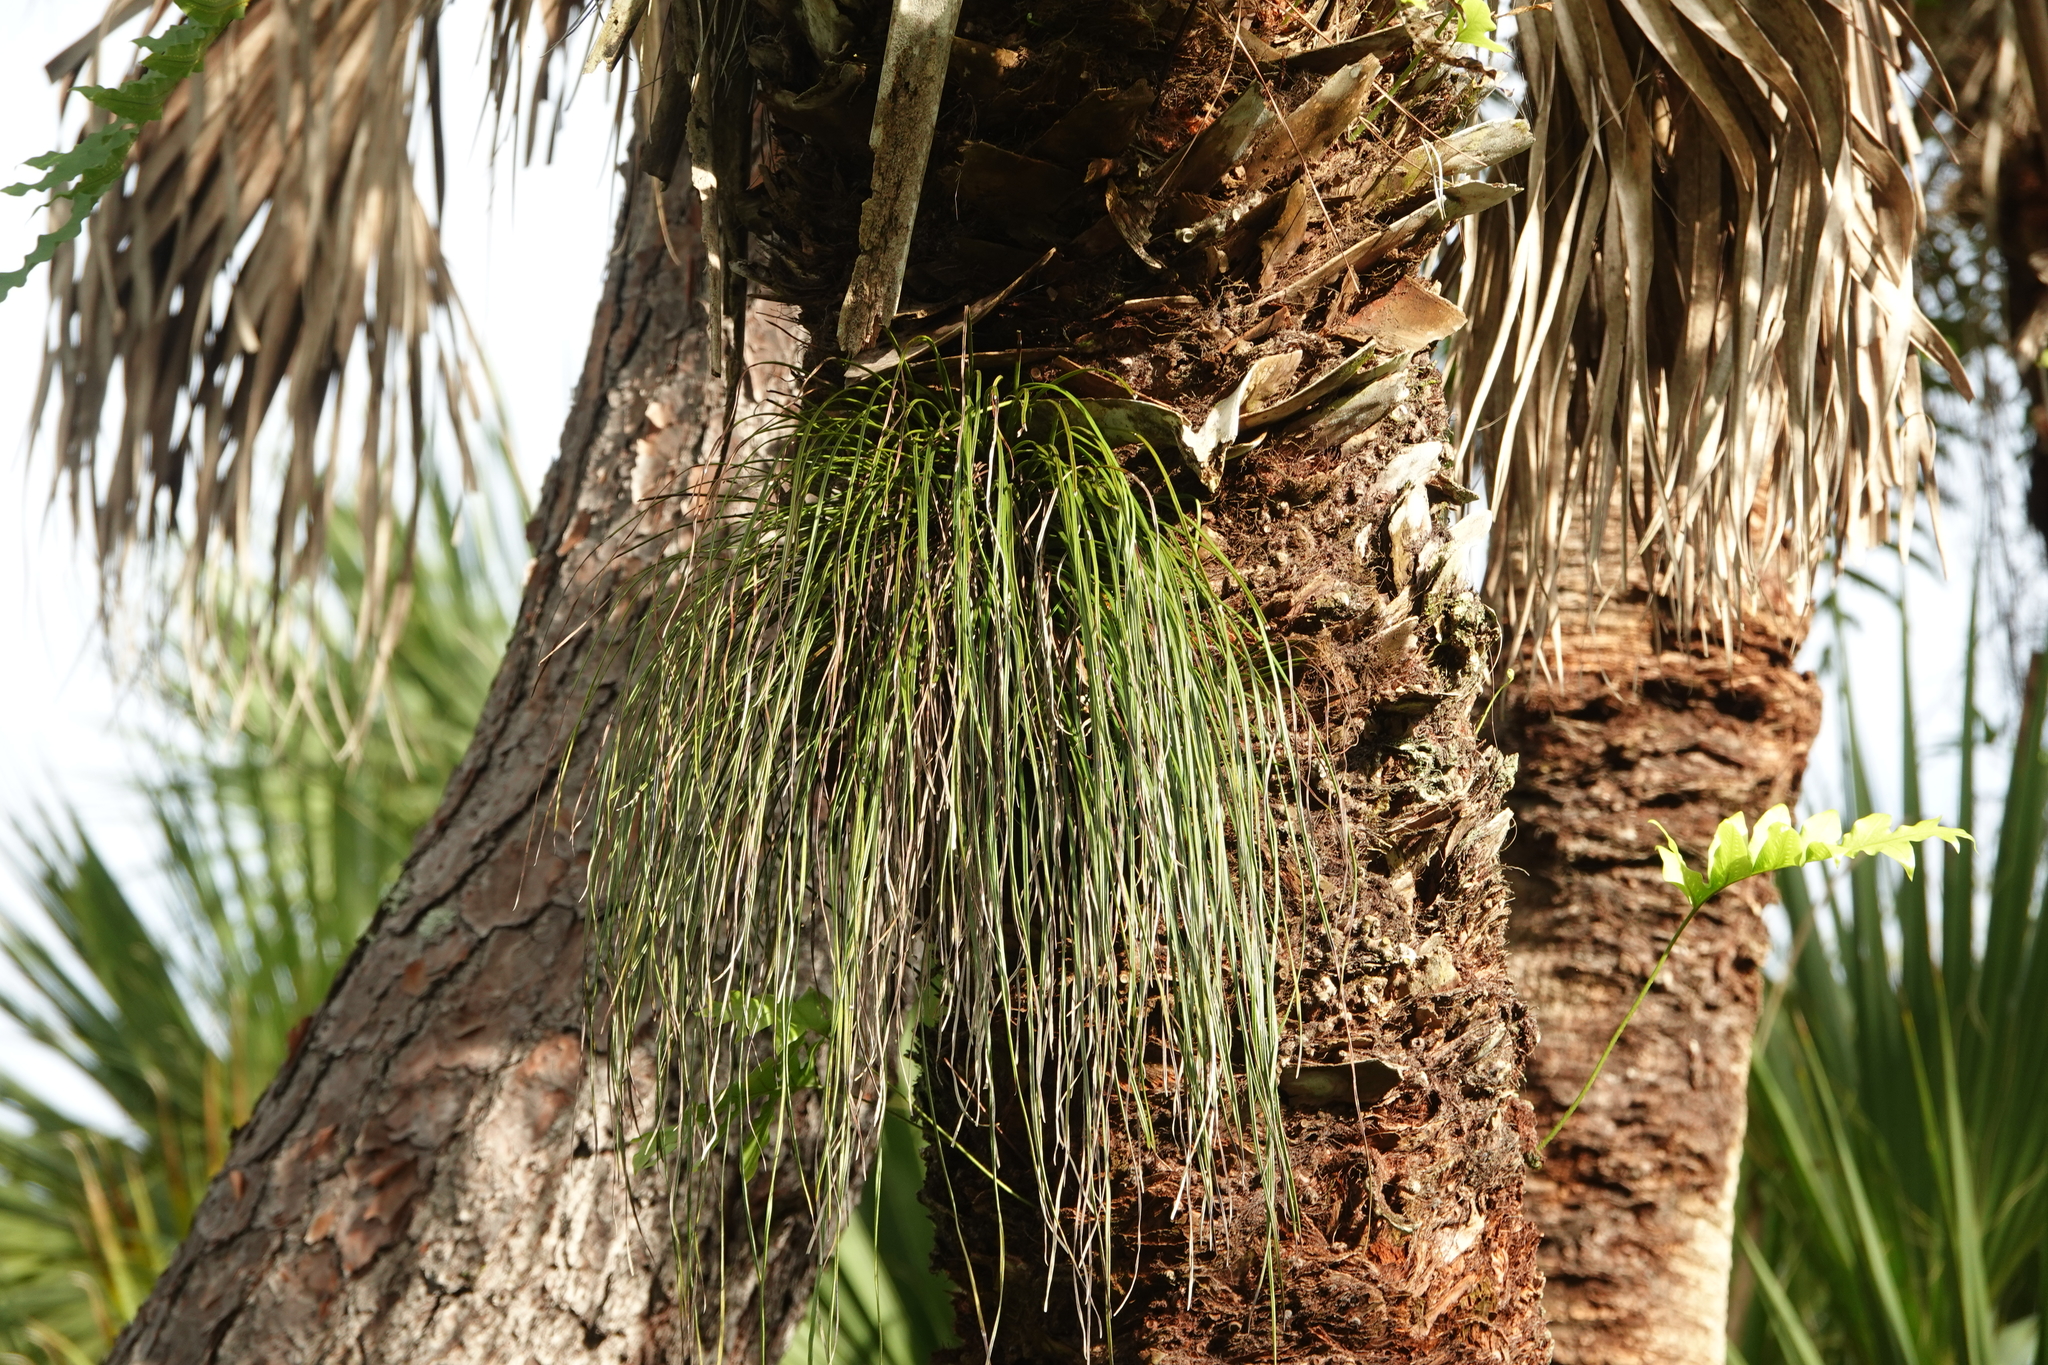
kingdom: Plantae
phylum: Tracheophyta
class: Polypodiopsida
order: Polypodiales
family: Pteridaceae
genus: Vittaria
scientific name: Vittaria lineata
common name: Shoestring fern
